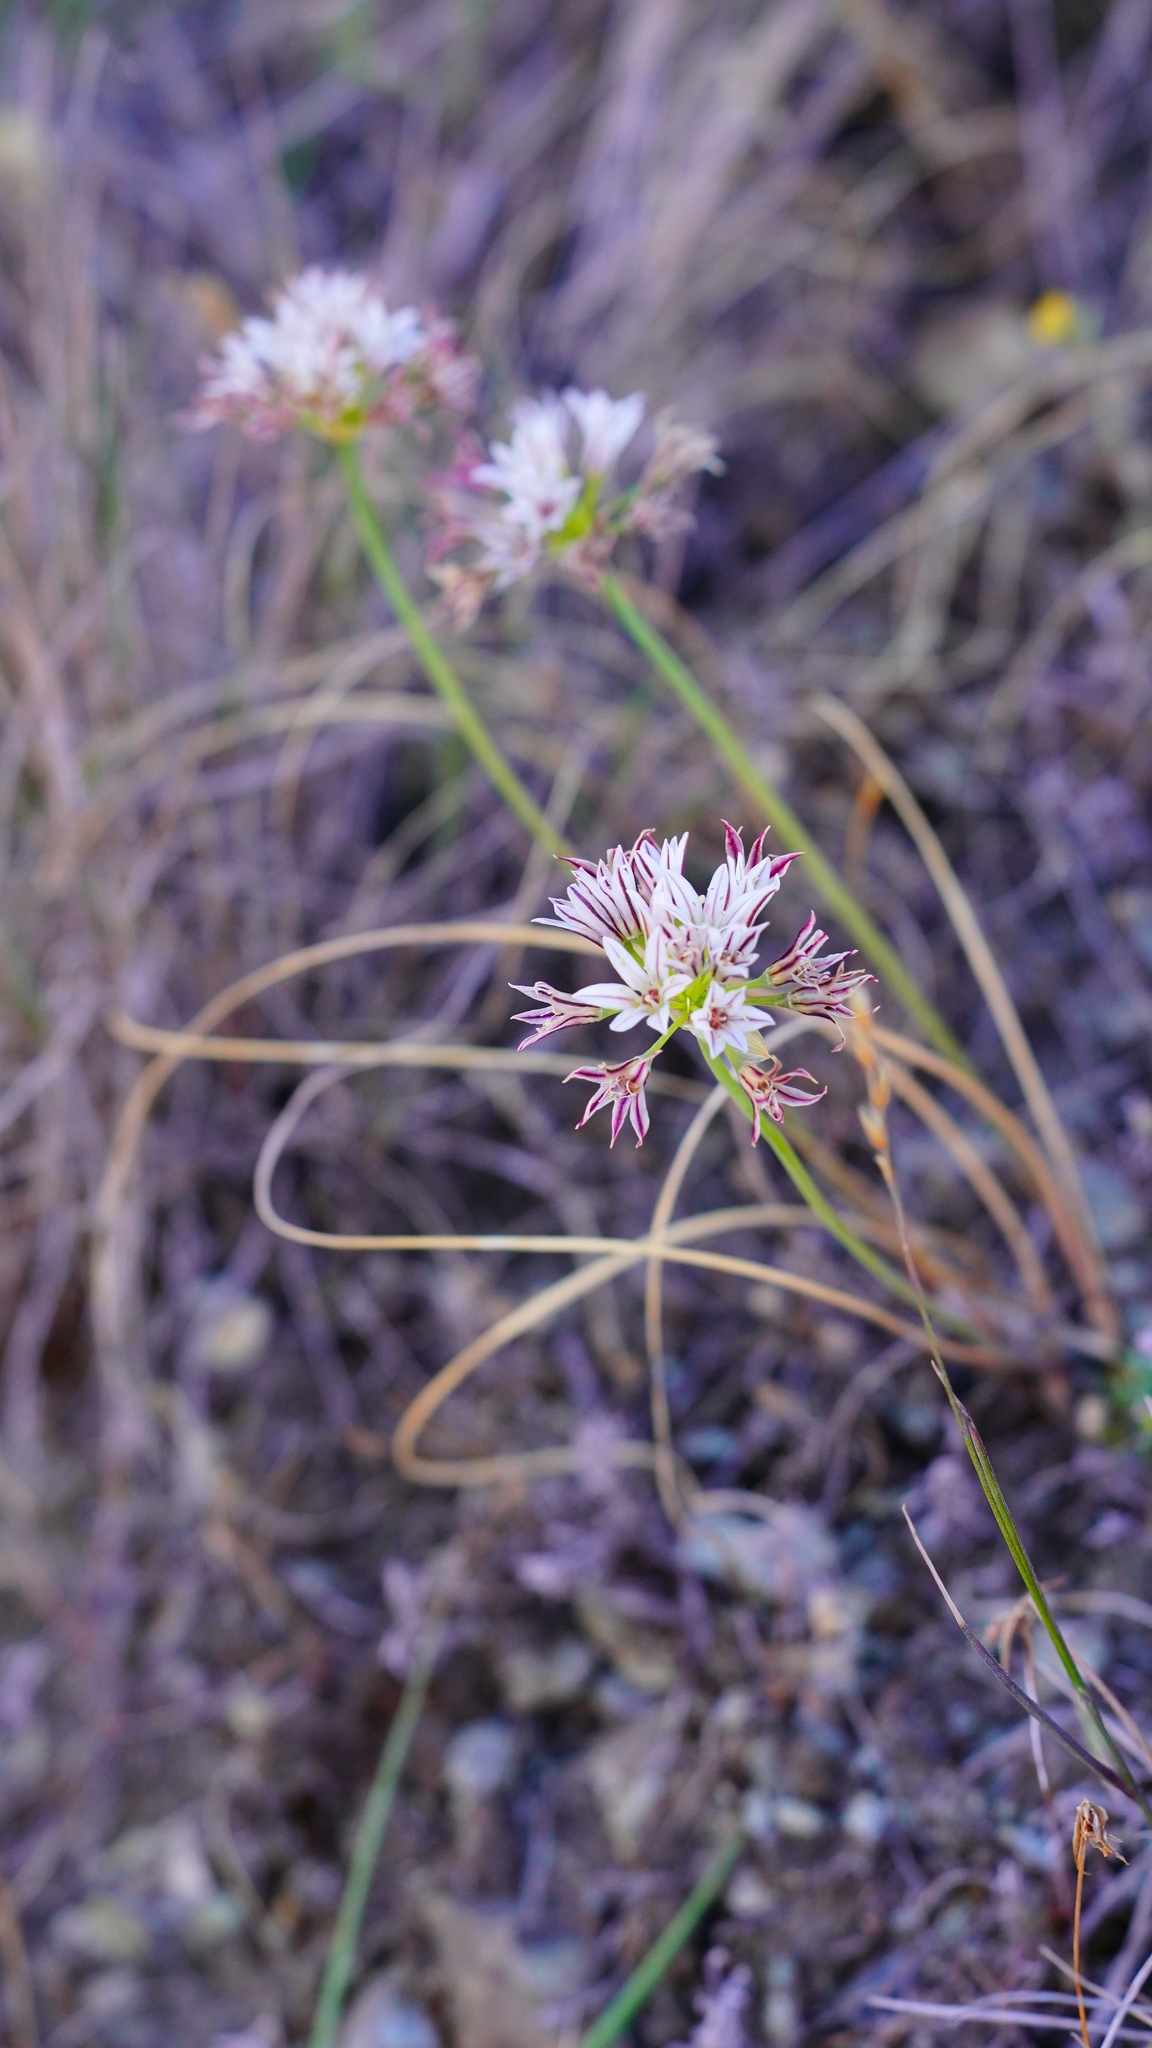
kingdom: Plantae
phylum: Tracheophyta
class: Liliopsida
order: Asparagales
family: Amaryllidaceae
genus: Allium
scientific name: Allium lacunosum
